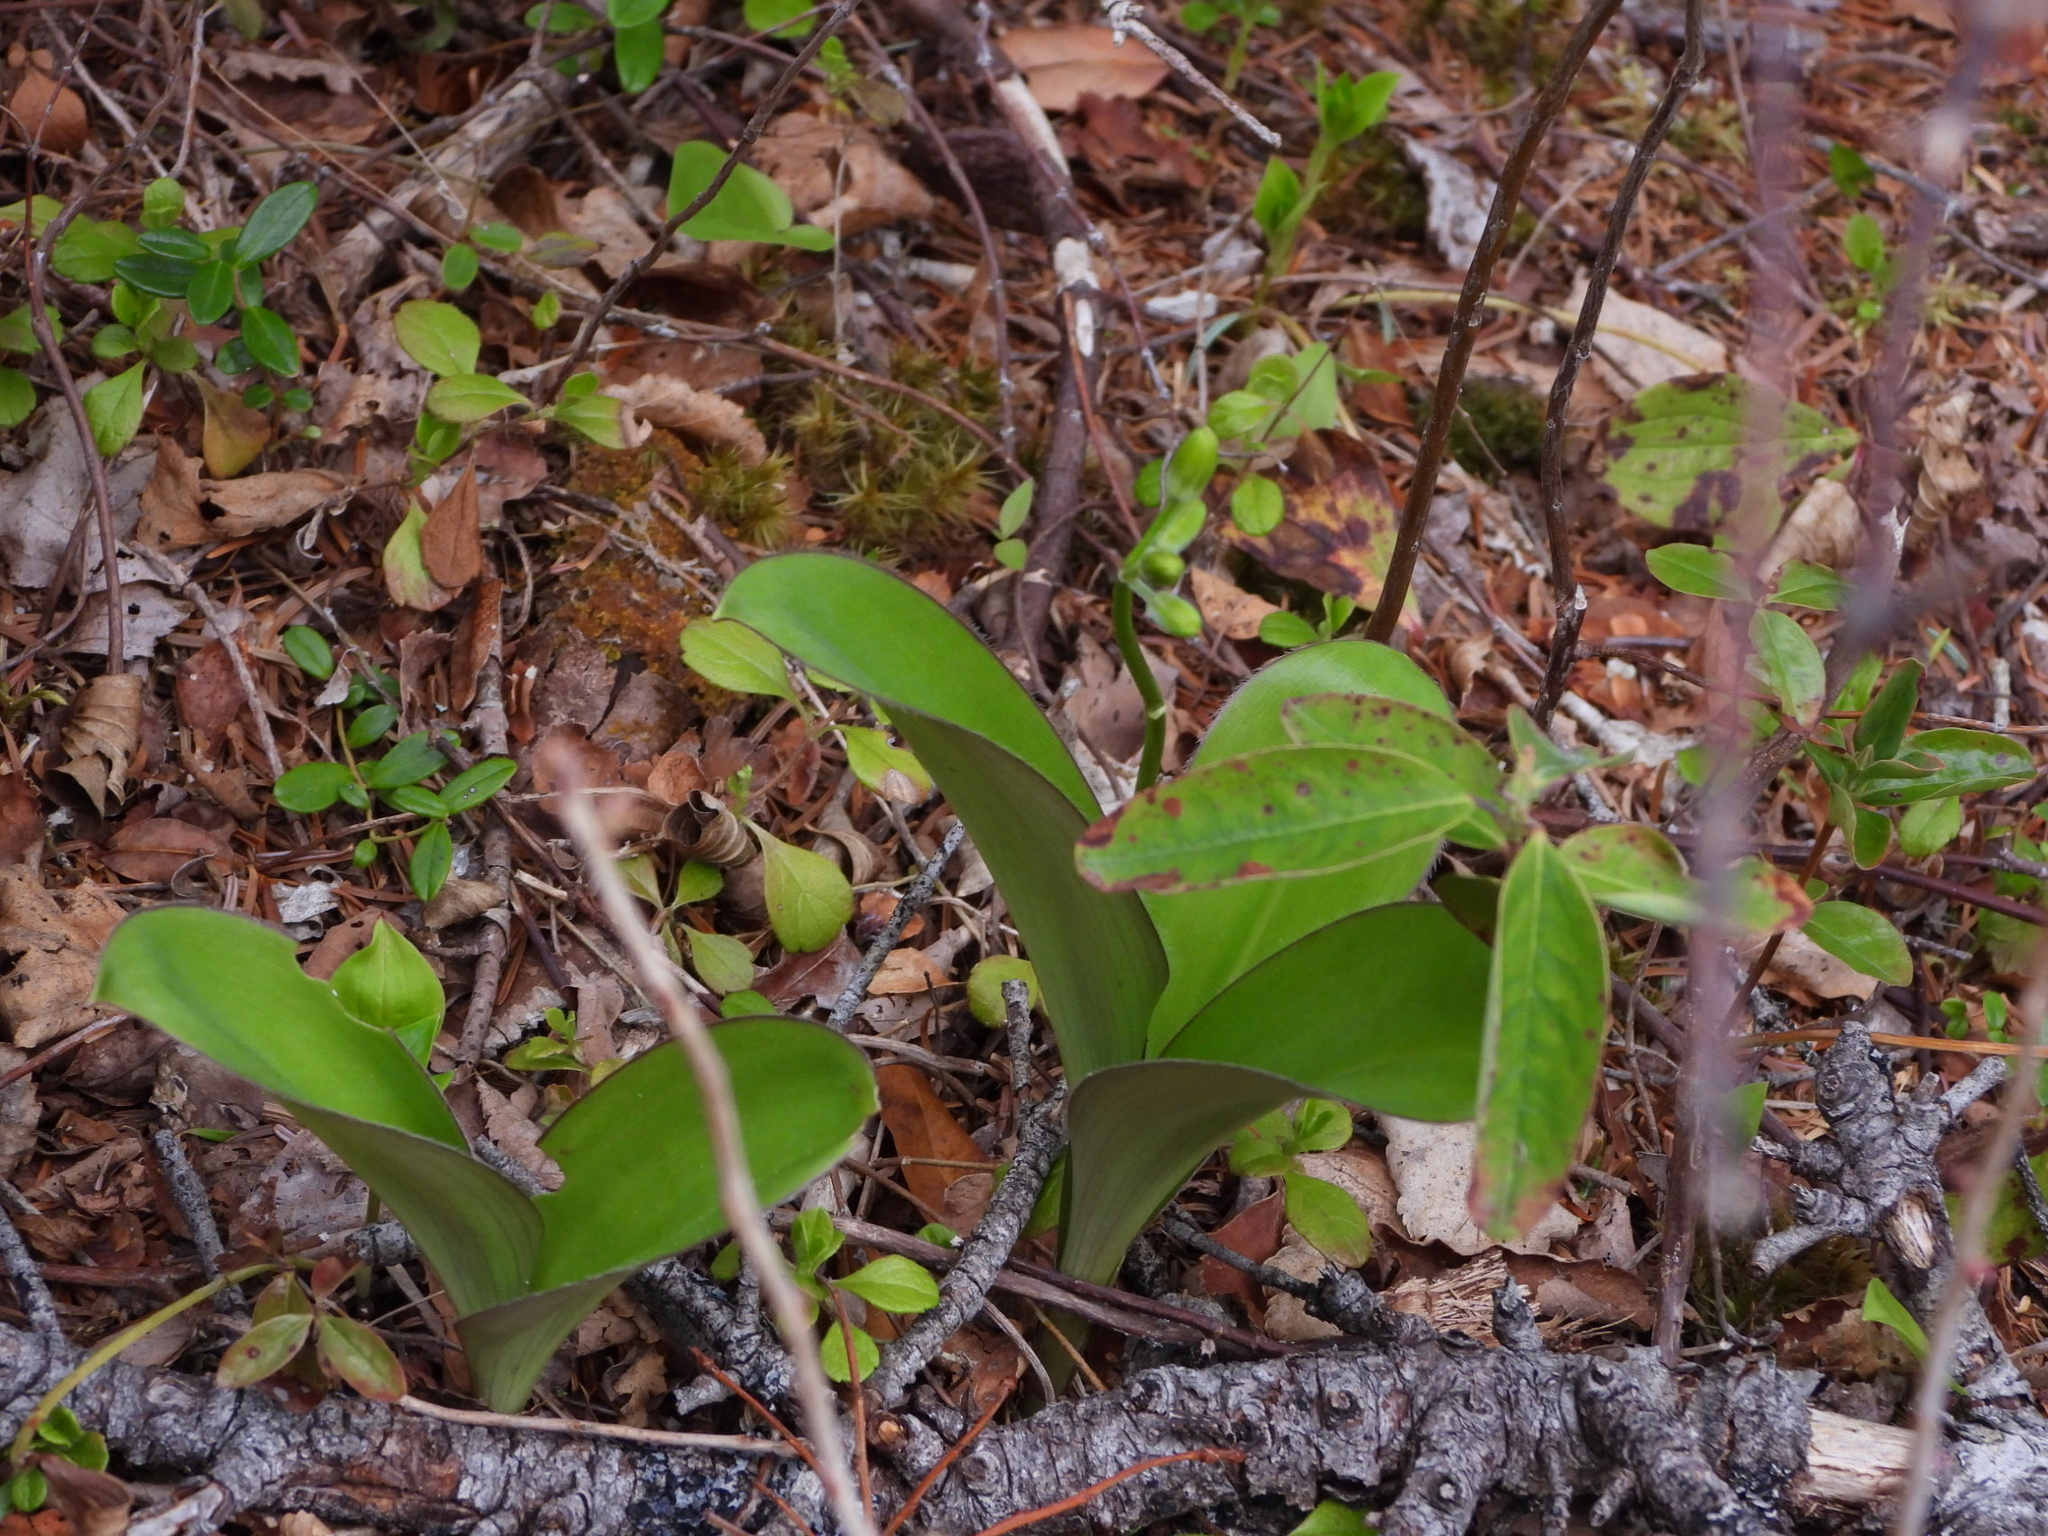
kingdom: Plantae
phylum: Tracheophyta
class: Liliopsida
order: Liliales
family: Liliaceae
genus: Clintonia
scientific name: Clintonia borealis
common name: Yellow clintonia
